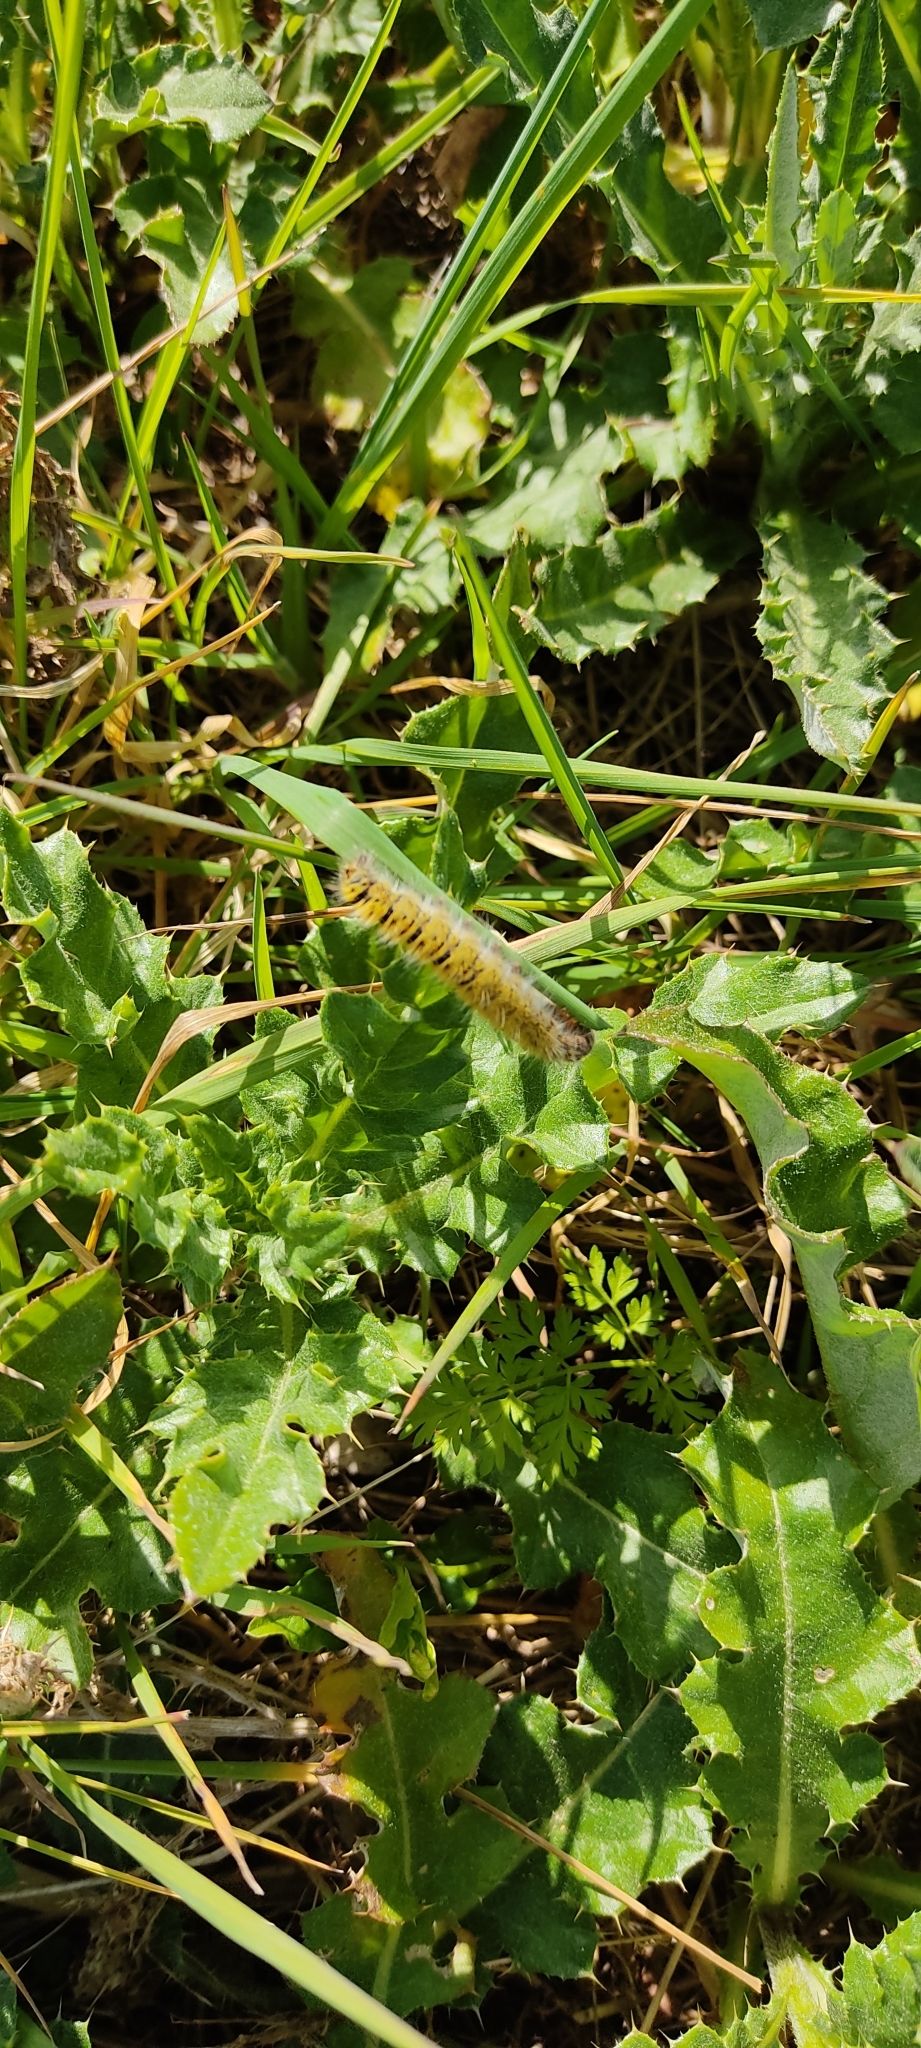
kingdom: Animalia
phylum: Arthropoda
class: Insecta
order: Lepidoptera
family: Lasiocampidae
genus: Lasiocampa
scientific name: Lasiocampa trifolii
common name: Grass eggar
